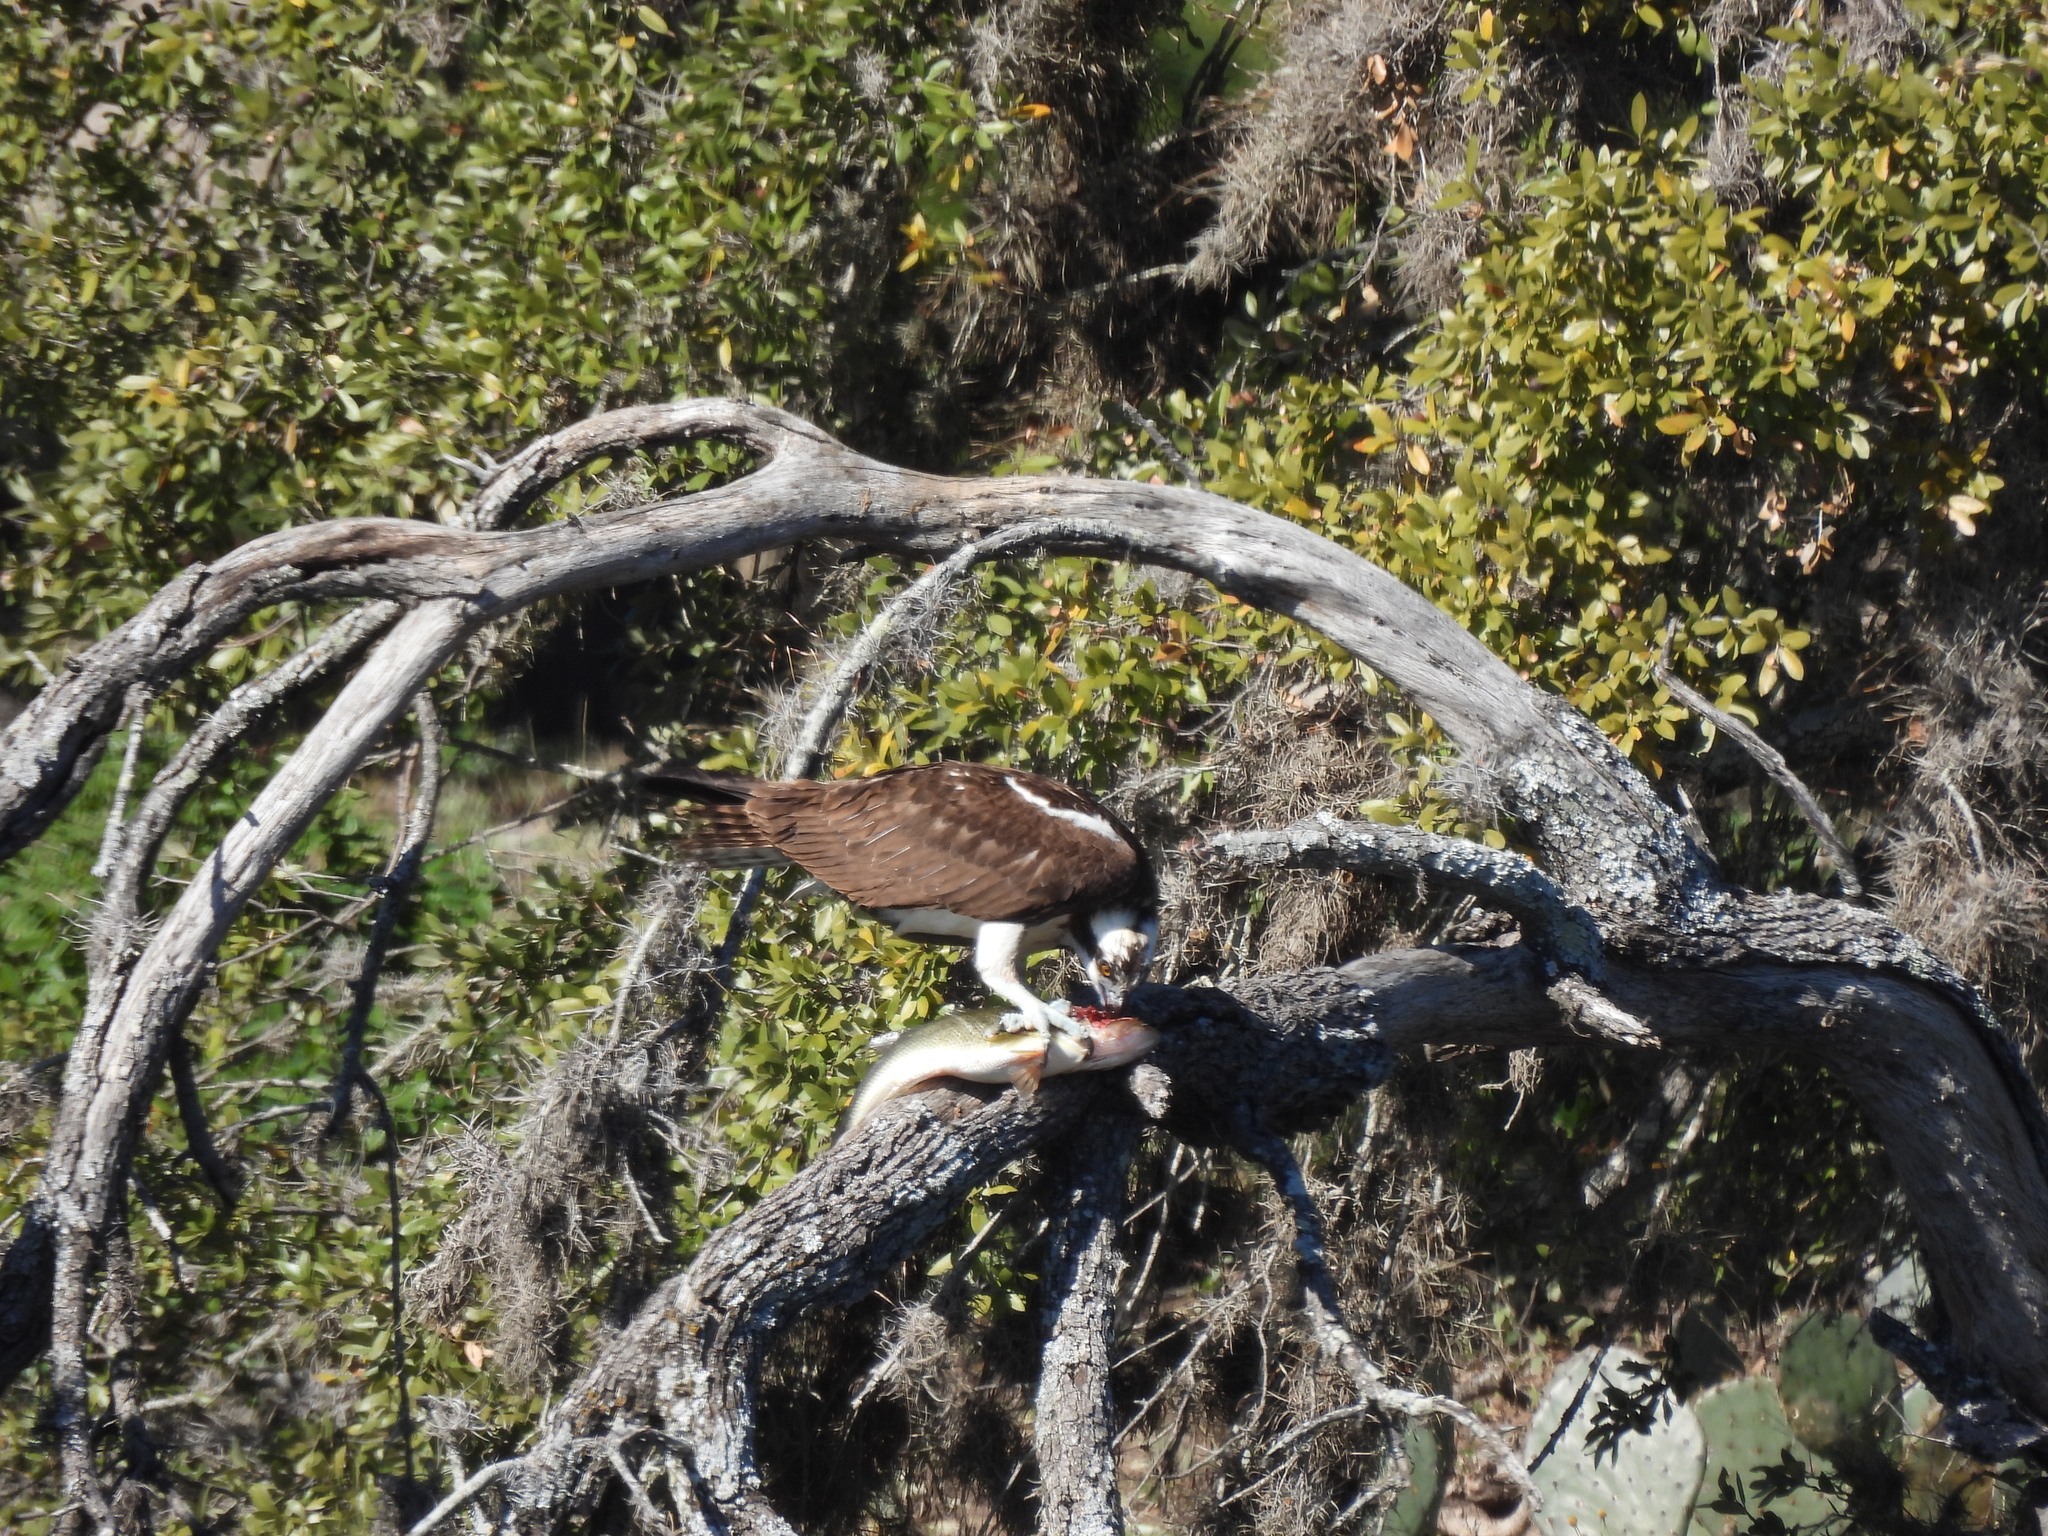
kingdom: Animalia
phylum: Chordata
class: Aves
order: Accipitriformes
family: Pandionidae
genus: Pandion
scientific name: Pandion haliaetus
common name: Osprey
